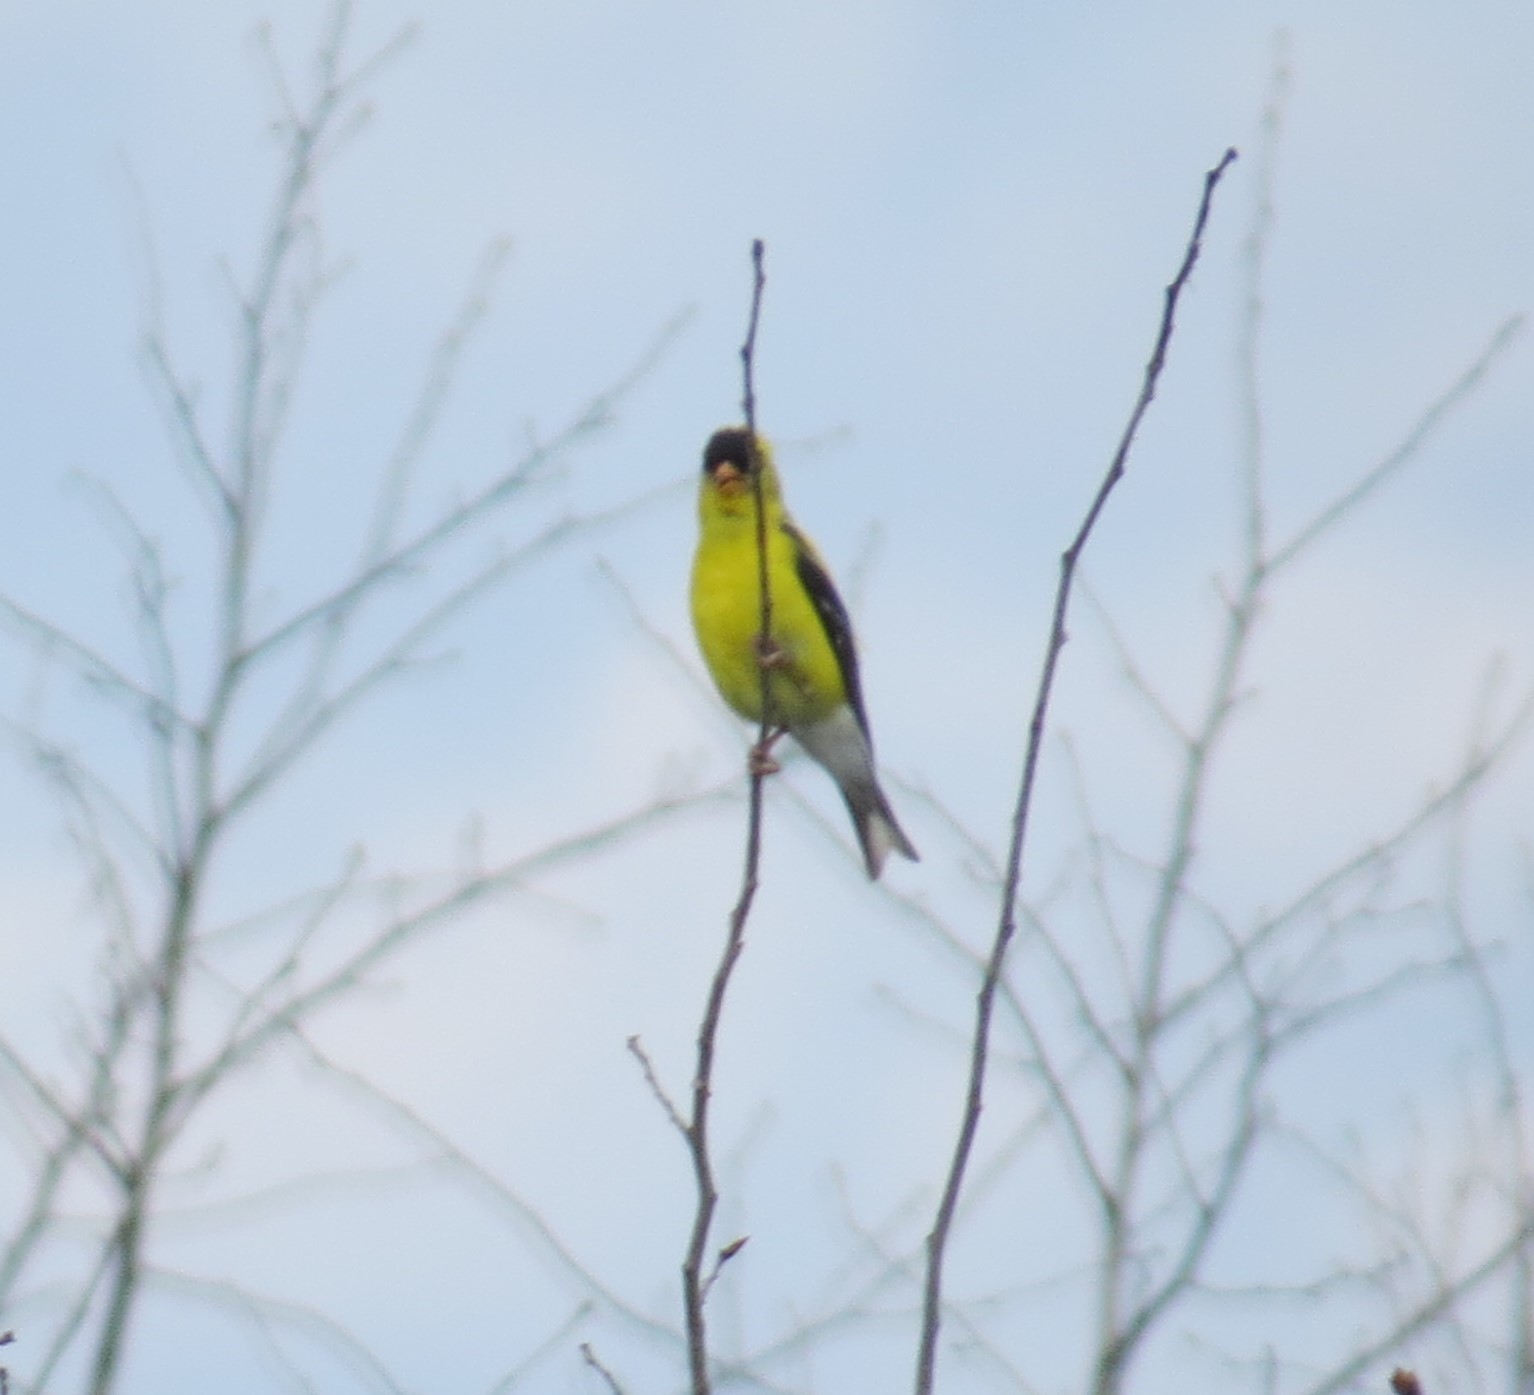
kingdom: Animalia
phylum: Chordata
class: Aves
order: Passeriformes
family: Fringillidae
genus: Spinus
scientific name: Spinus tristis
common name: American goldfinch
